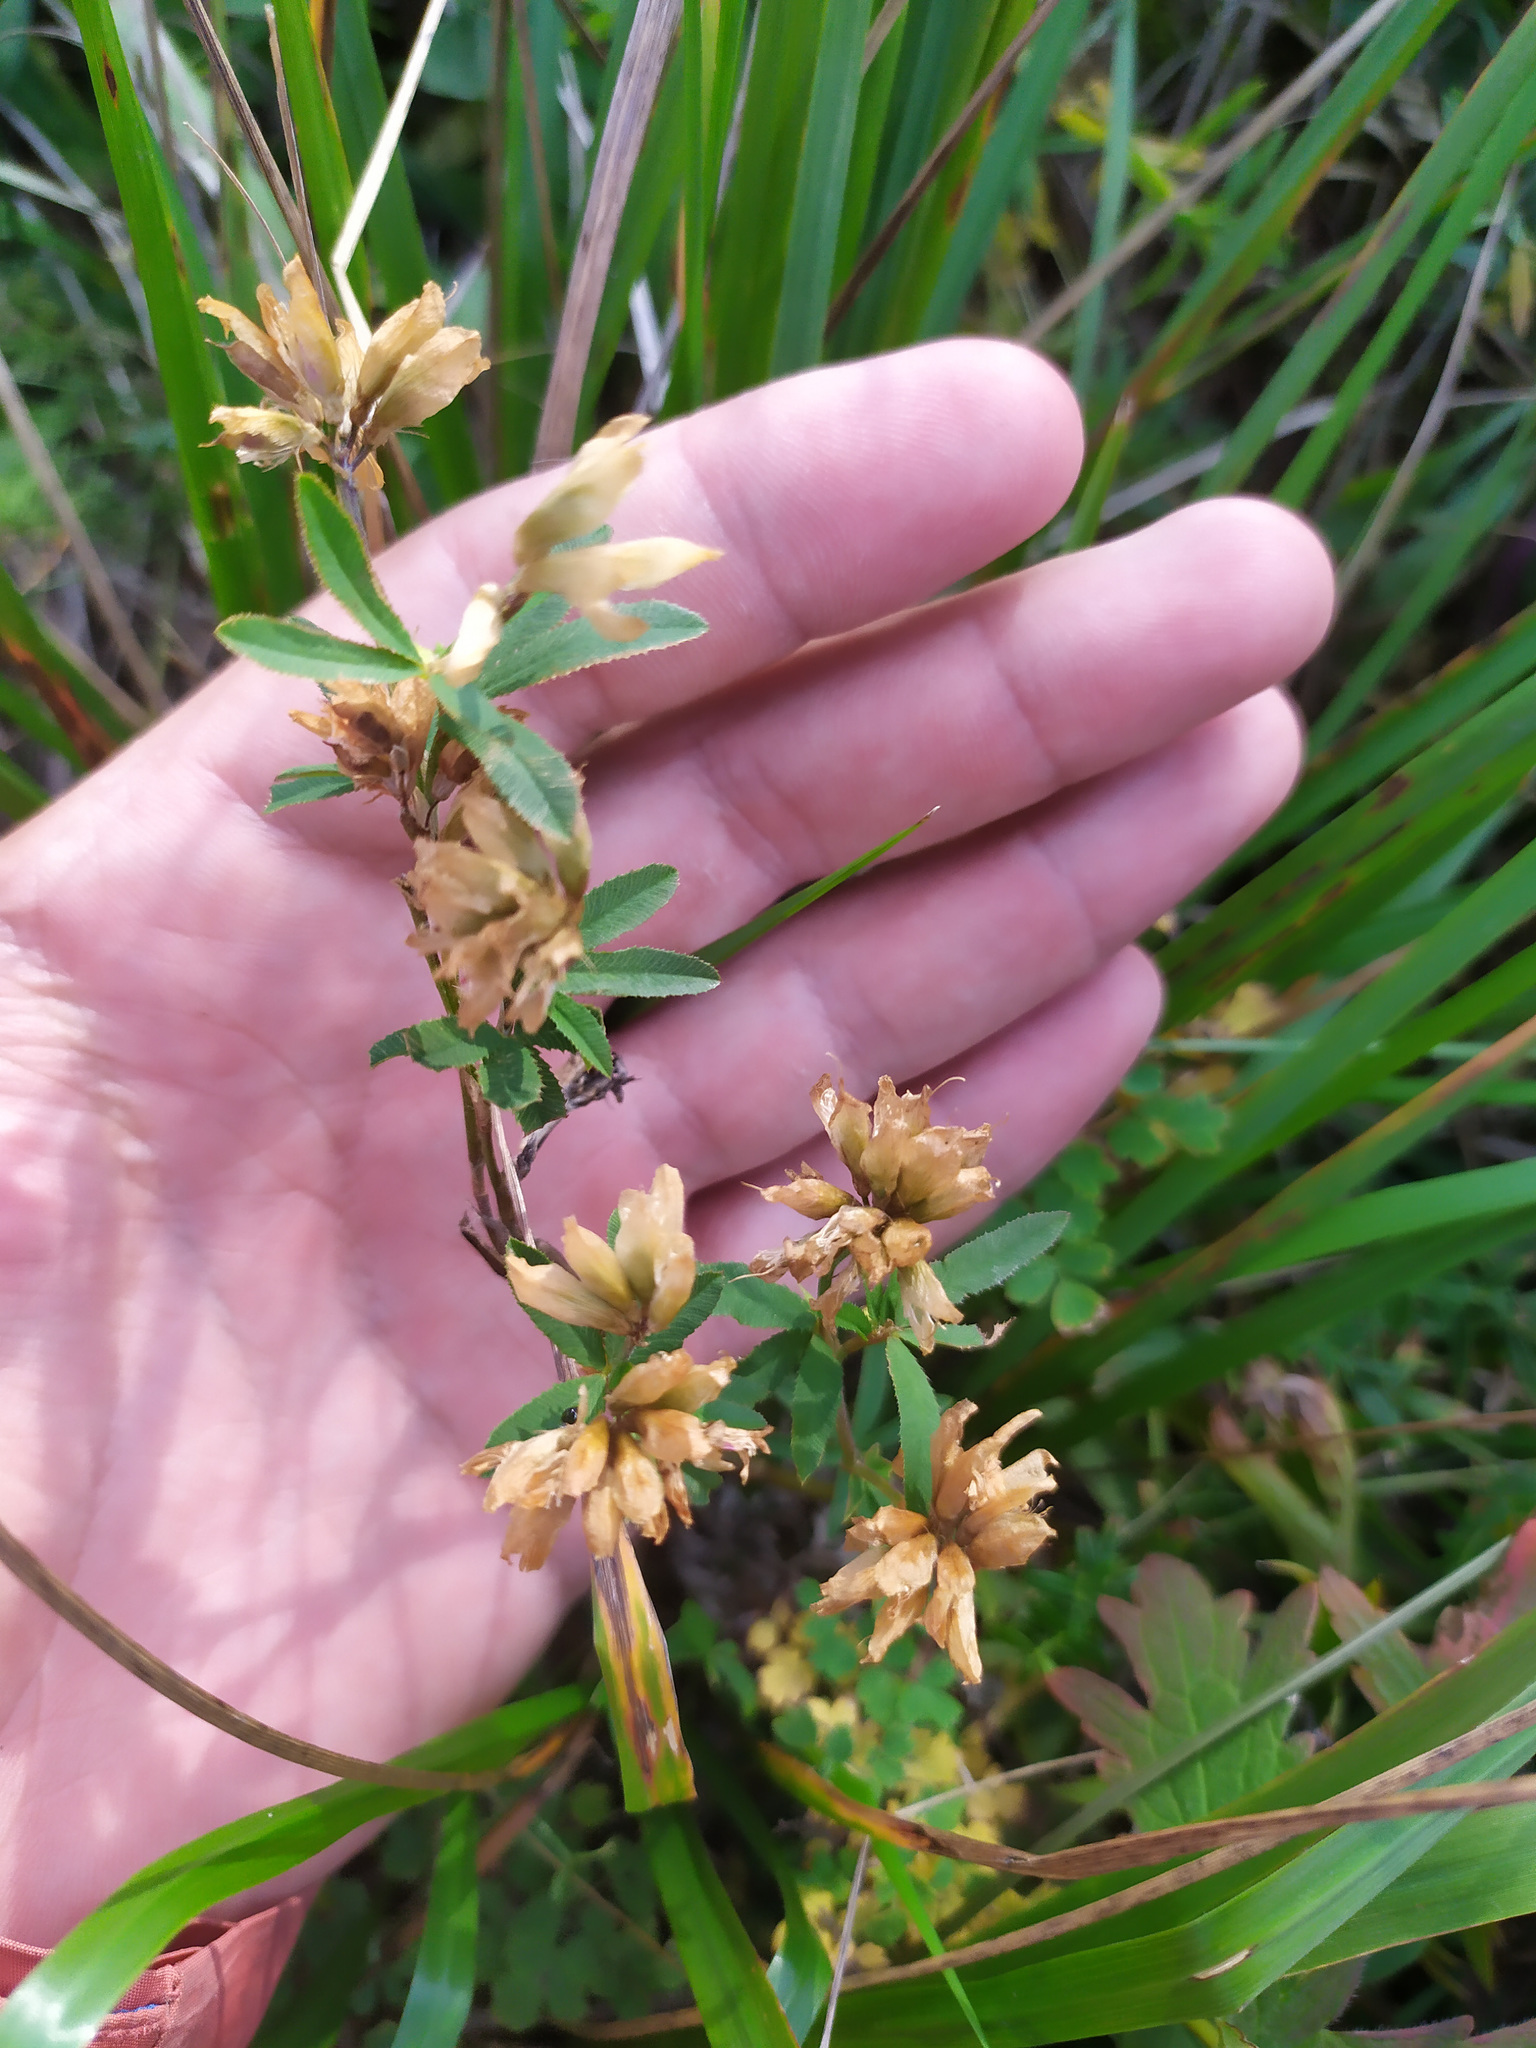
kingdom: Plantae
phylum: Tracheophyta
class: Magnoliopsida
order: Fabales
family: Fabaceae
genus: Trifolium
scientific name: Trifolium lupinaster
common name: Lupine clover
